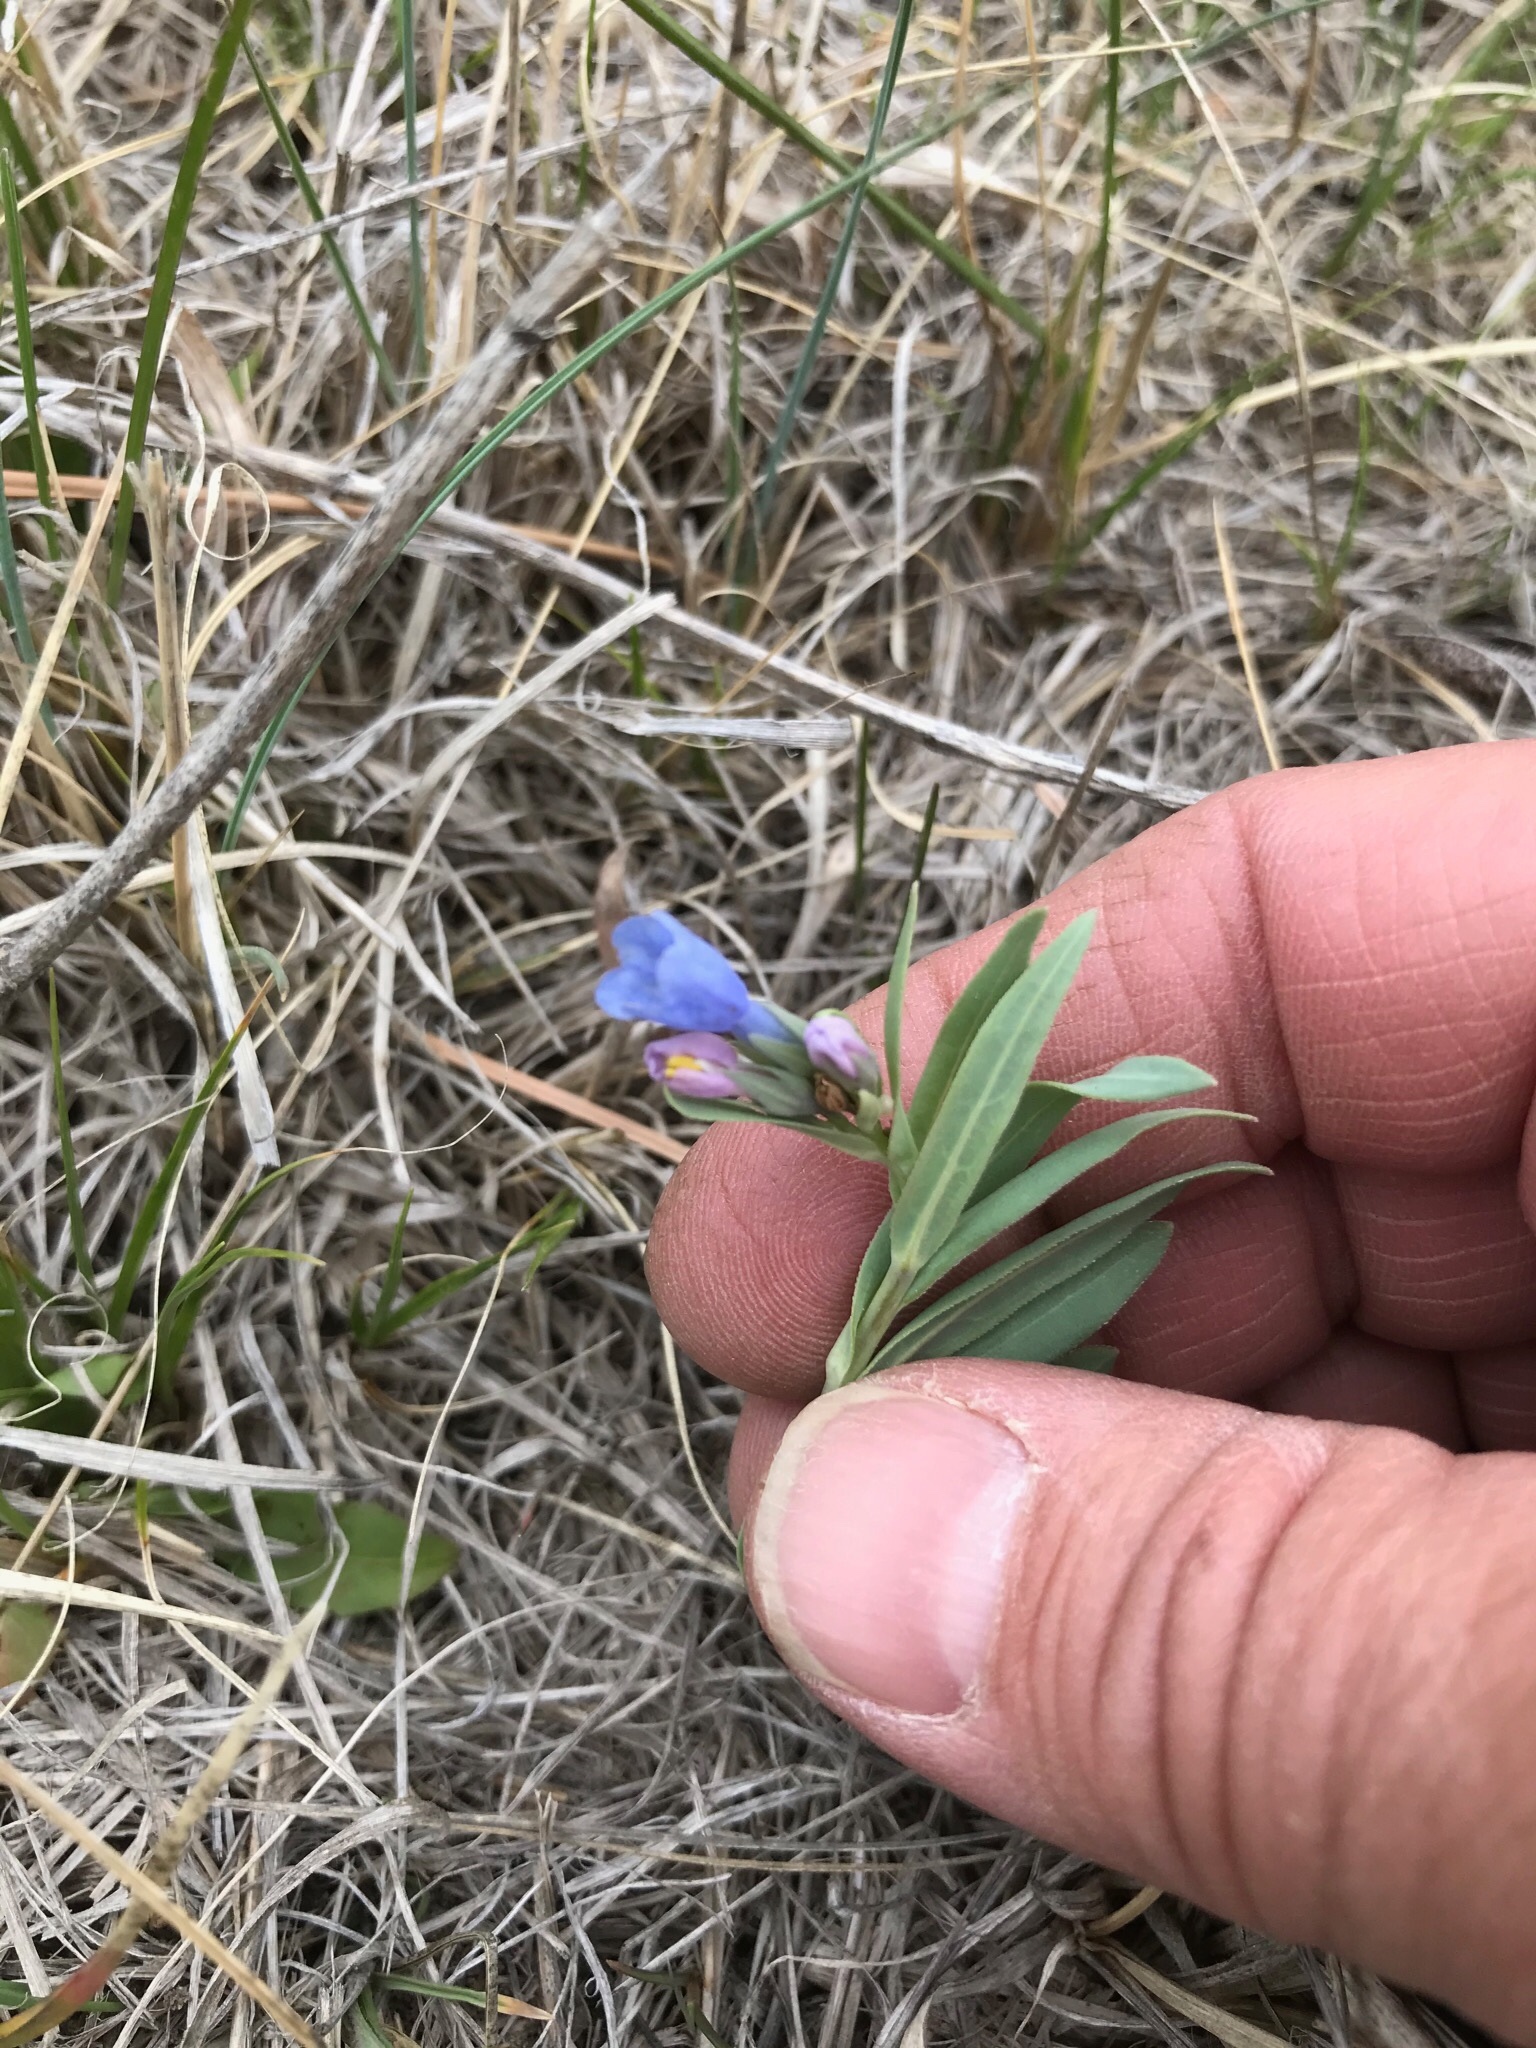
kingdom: Plantae
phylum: Tracheophyta
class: Magnoliopsida
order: Boraginales
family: Boraginaceae
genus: Mertensia
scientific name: Mertensia lanceolata
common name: Lance-leaved bluebells
